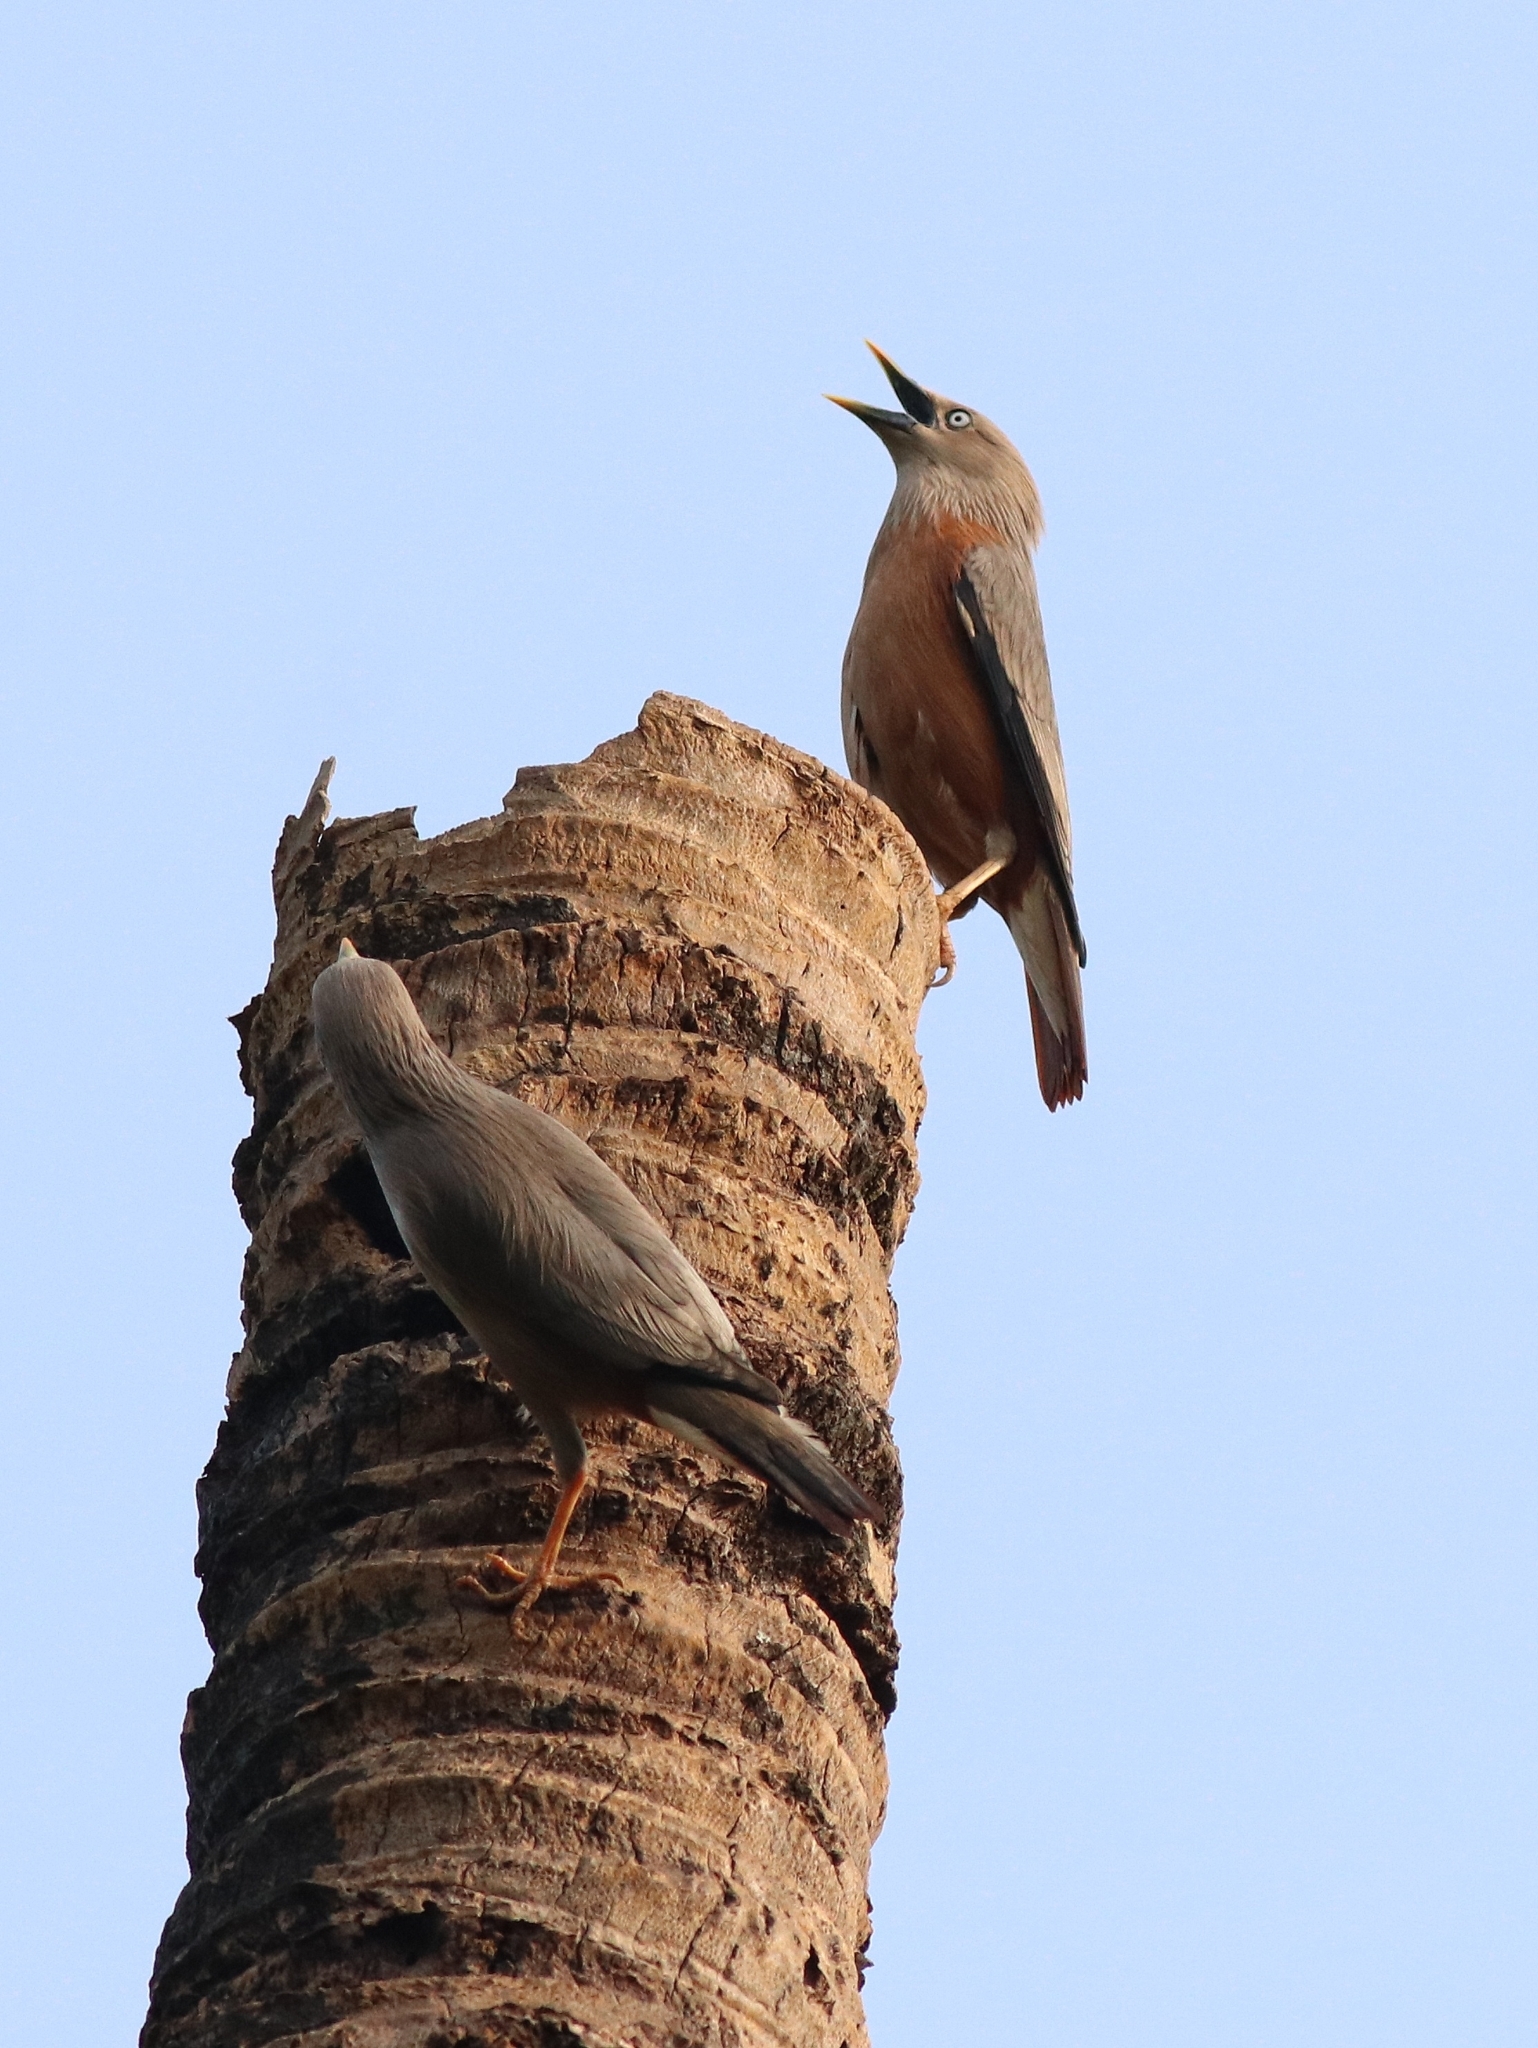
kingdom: Animalia
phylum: Chordata
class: Aves
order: Passeriformes
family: Sturnidae
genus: Sturnia
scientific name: Sturnia blythii
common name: Malabar starling
